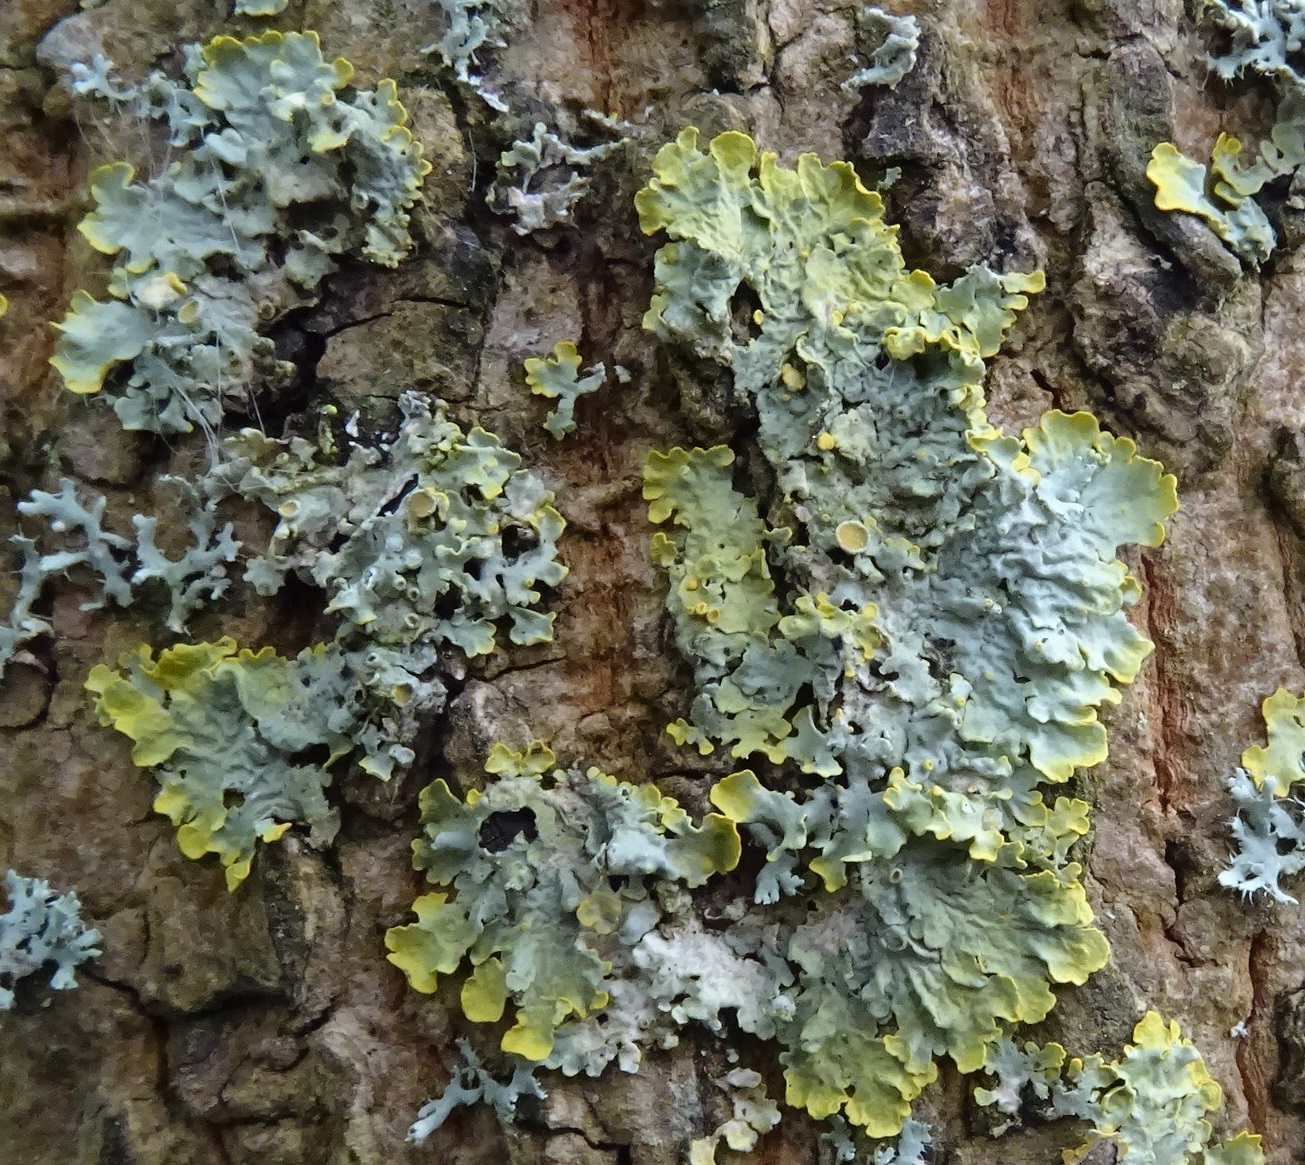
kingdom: Fungi
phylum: Ascomycota
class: Lecanoromycetes
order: Teloschistales
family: Teloschistaceae
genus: Xanthoria
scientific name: Xanthoria parietina
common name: Common orange lichen
